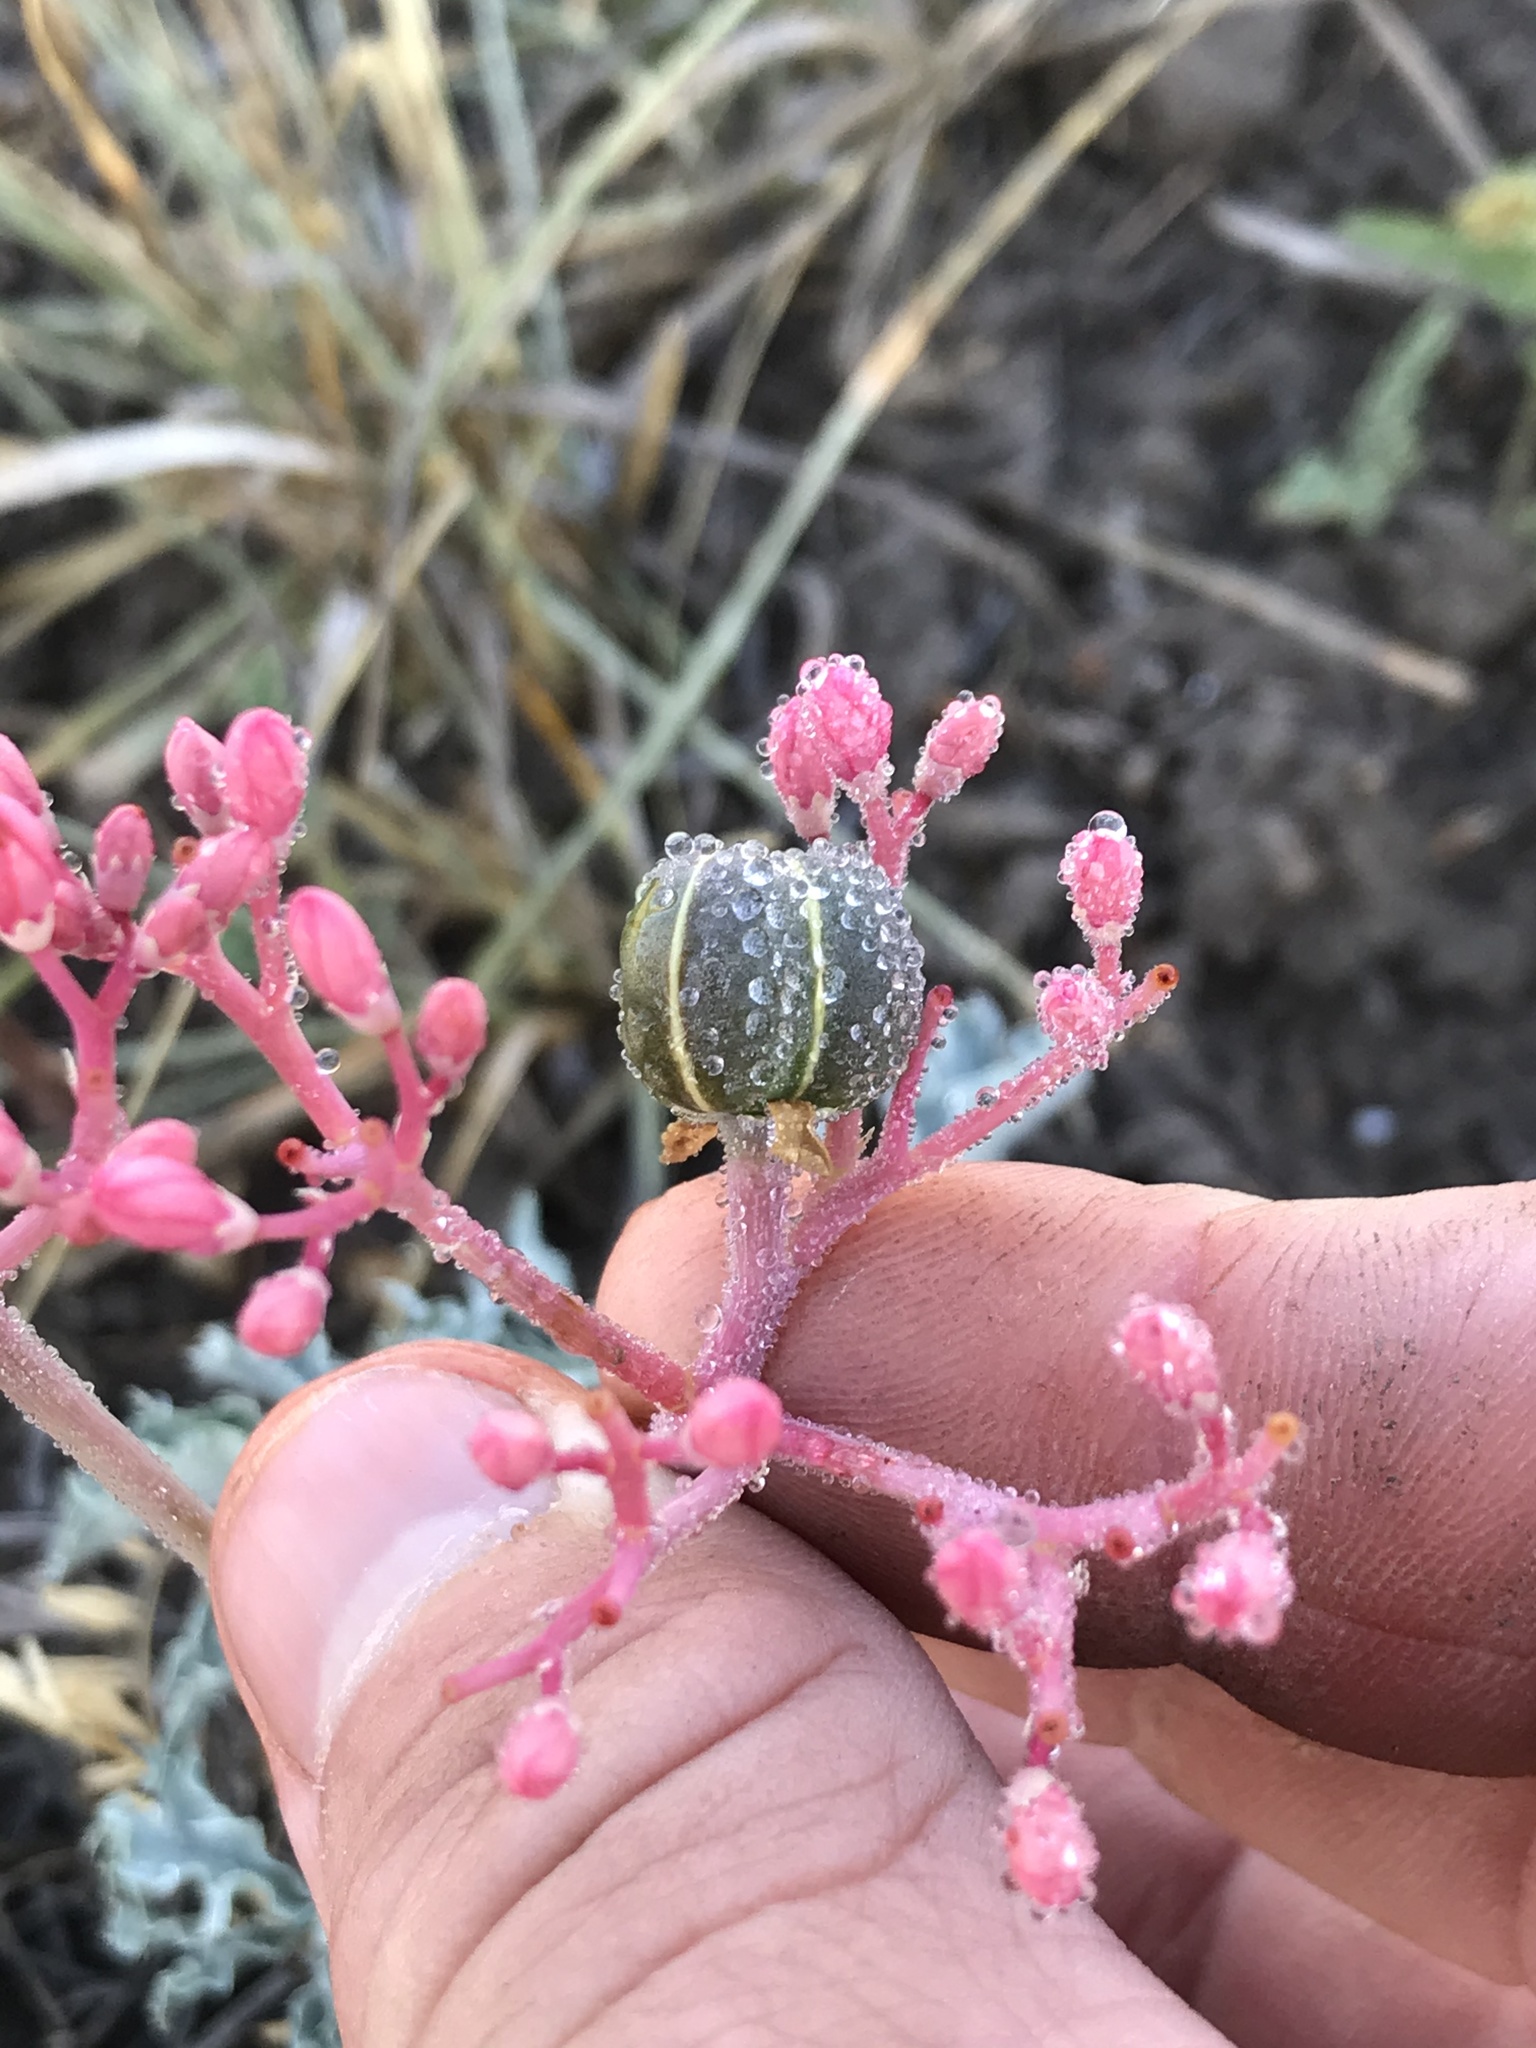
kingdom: Plantae
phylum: Tracheophyta
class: Magnoliopsida
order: Malpighiales
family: Euphorbiaceae
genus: Jatropha
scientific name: Jatropha cathartica
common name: Berlander's nettlespurge
